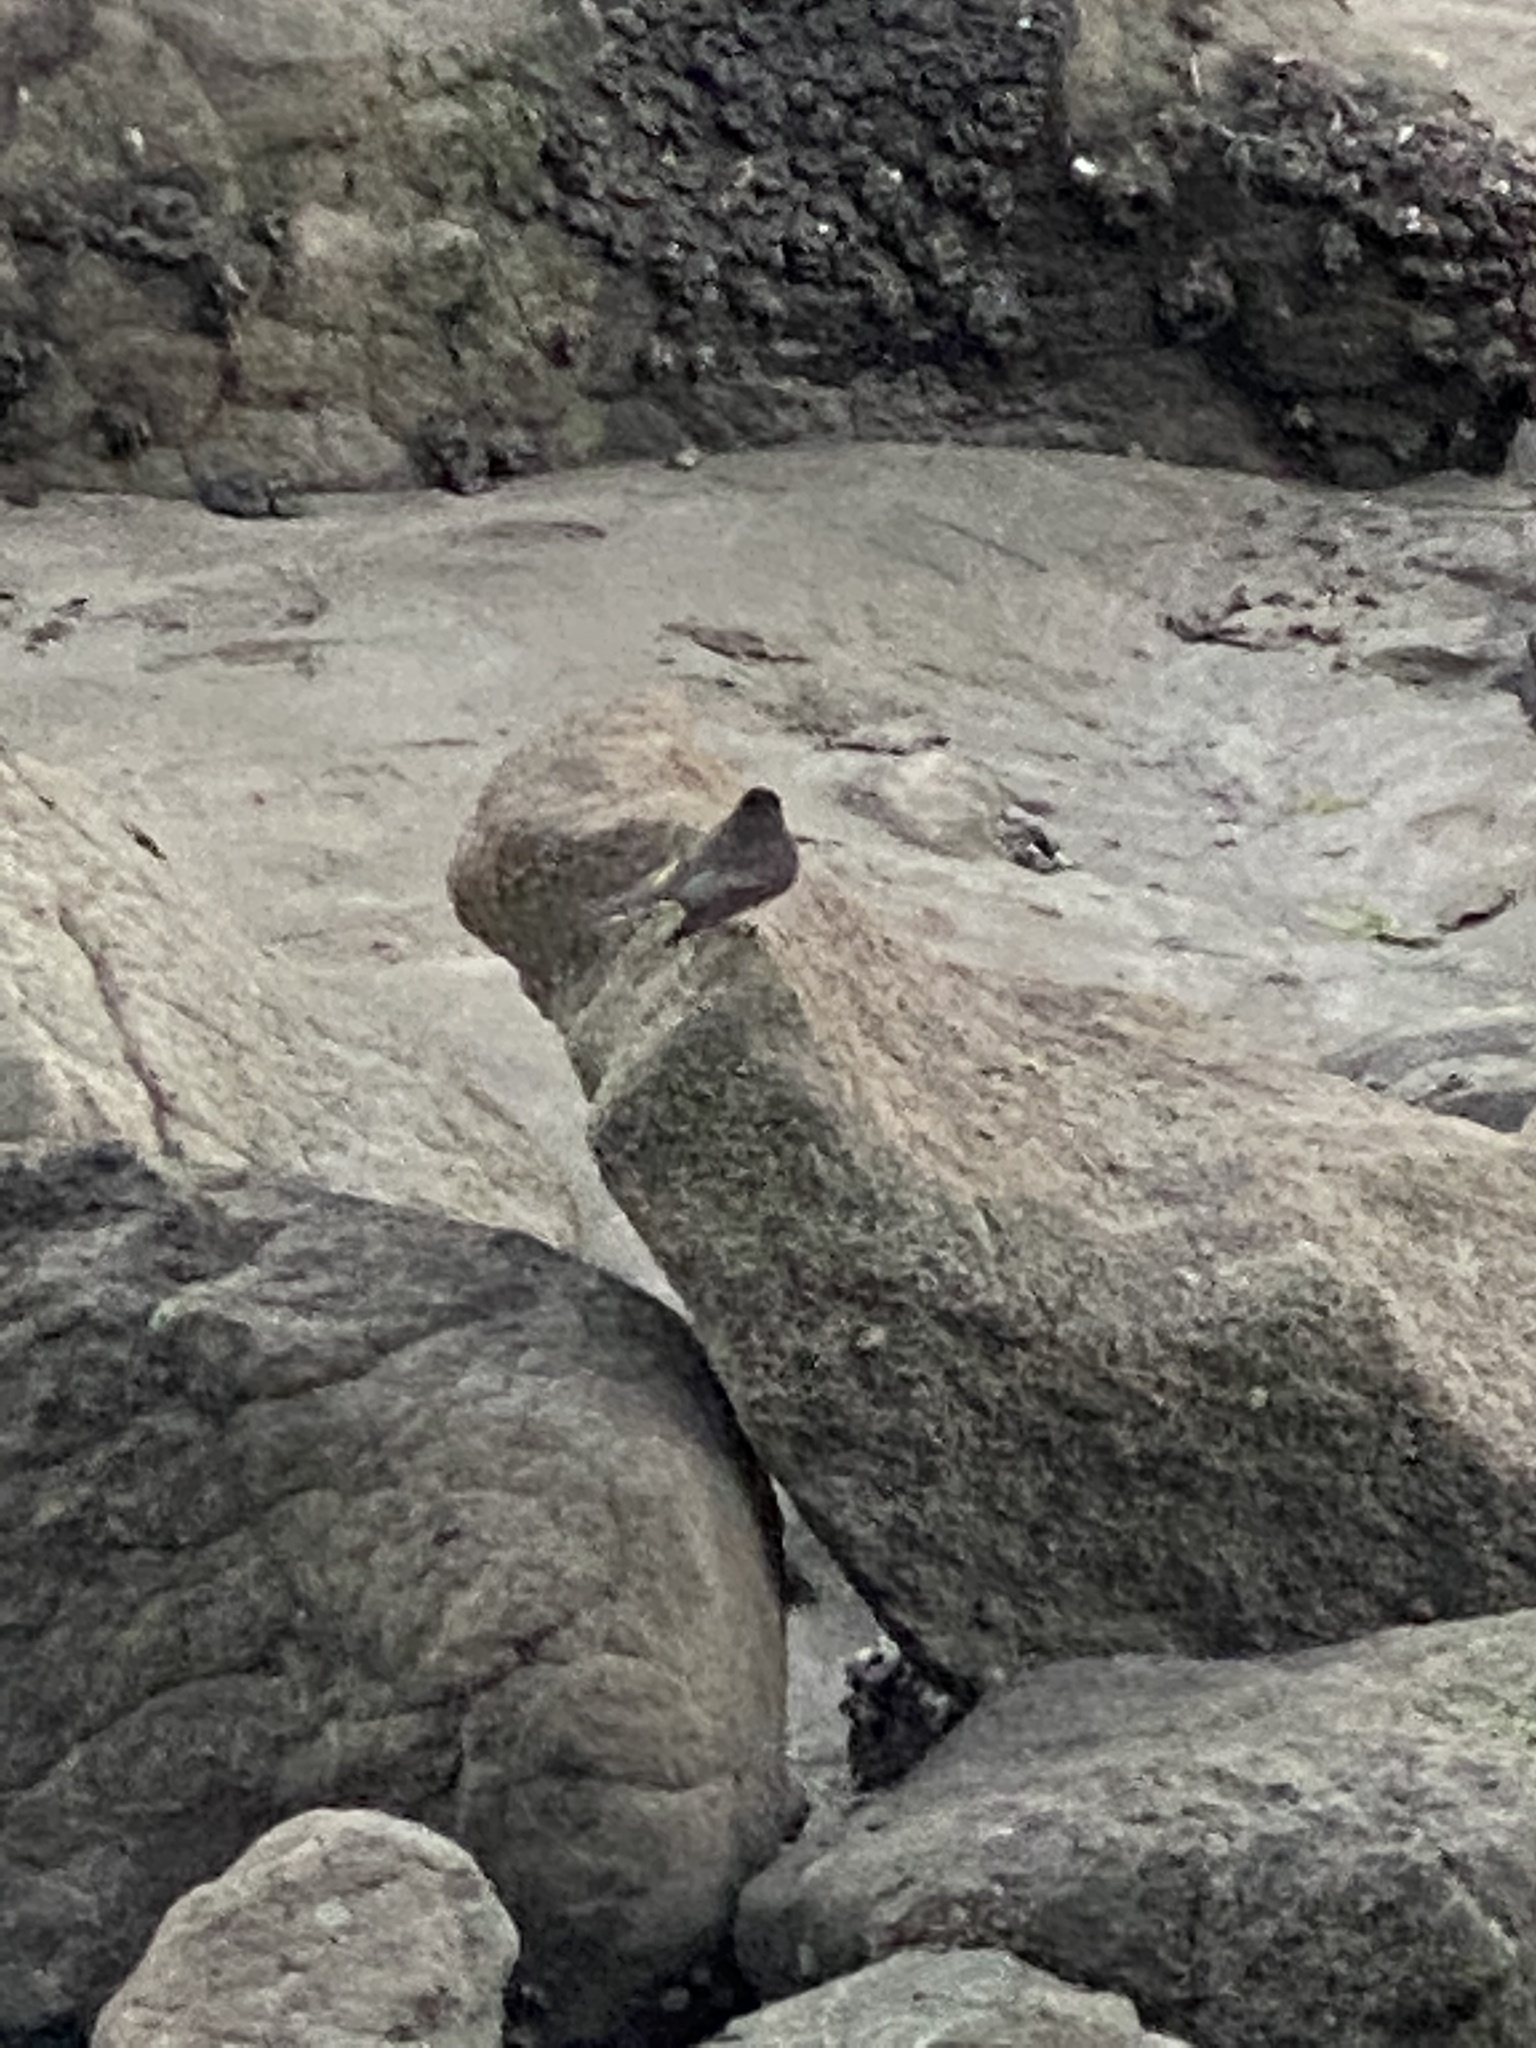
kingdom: Animalia
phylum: Chordata
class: Aves
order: Passeriformes
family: Tyrannidae
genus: Sayornis
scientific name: Sayornis nigricans
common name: Black phoebe
